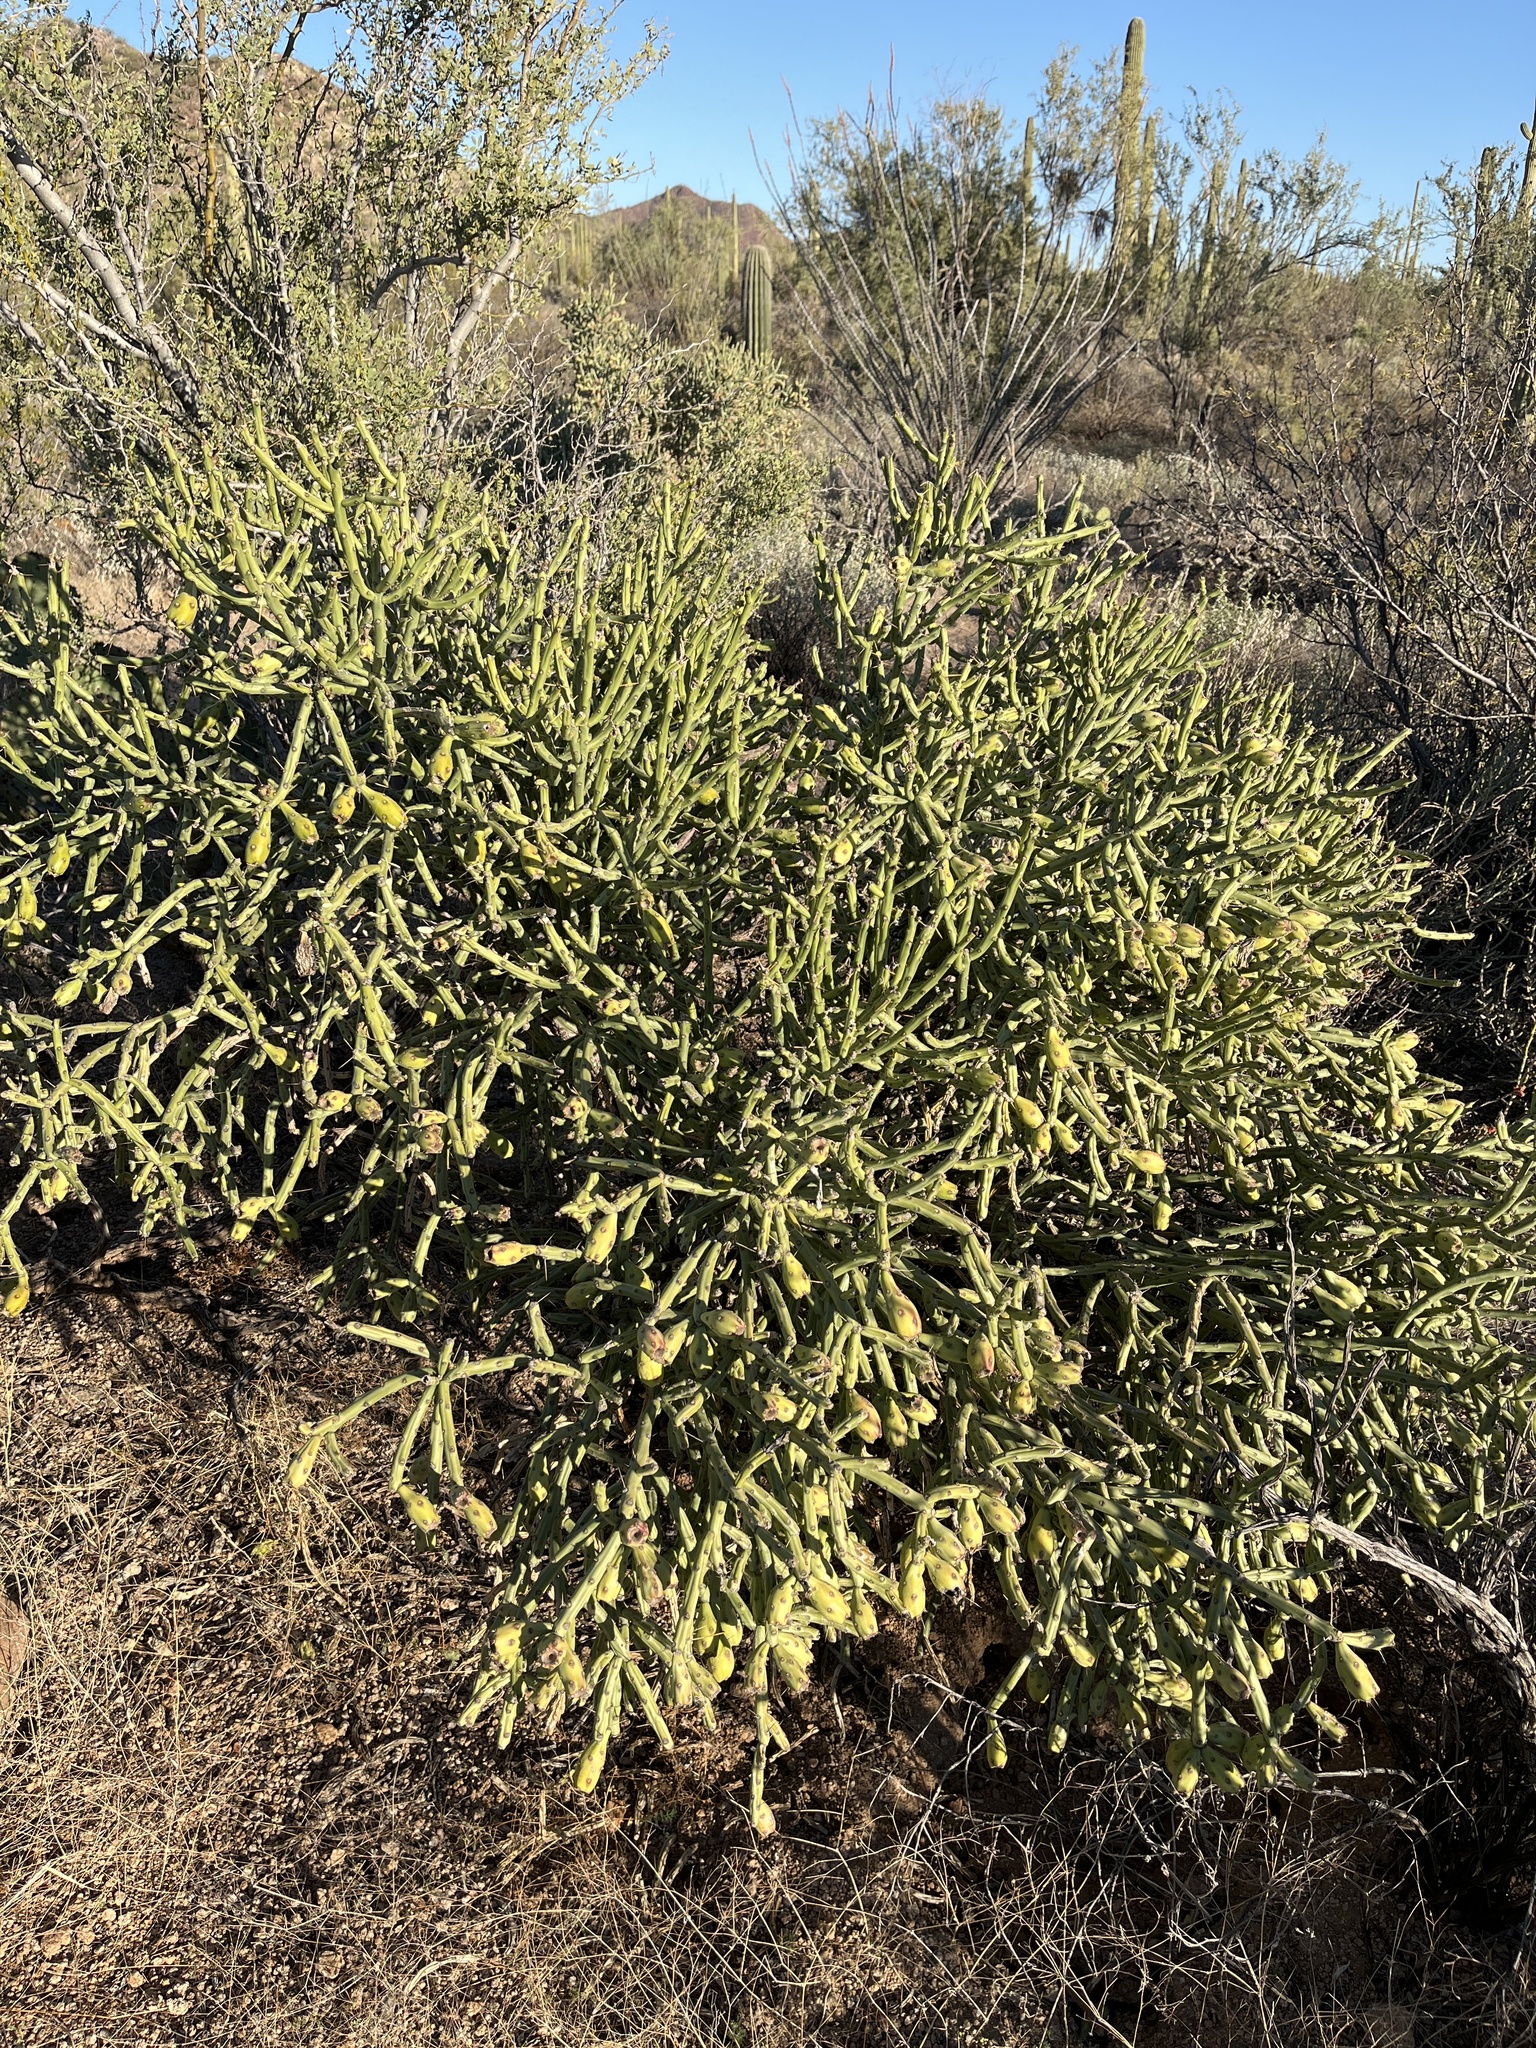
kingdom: Plantae
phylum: Tracheophyta
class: Magnoliopsida
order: Caryophyllales
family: Cactaceae
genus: Cylindropuntia
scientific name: Cylindropuntia arbuscula
